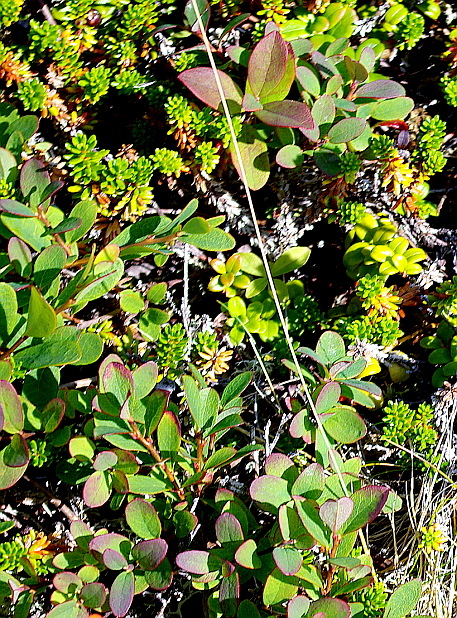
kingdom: Plantae
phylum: Tracheophyta
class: Magnoliopsida
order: Ericales
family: Ericaceae
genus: Vaccinium
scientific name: Vaccinium uliginosum
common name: Bog bilberry
